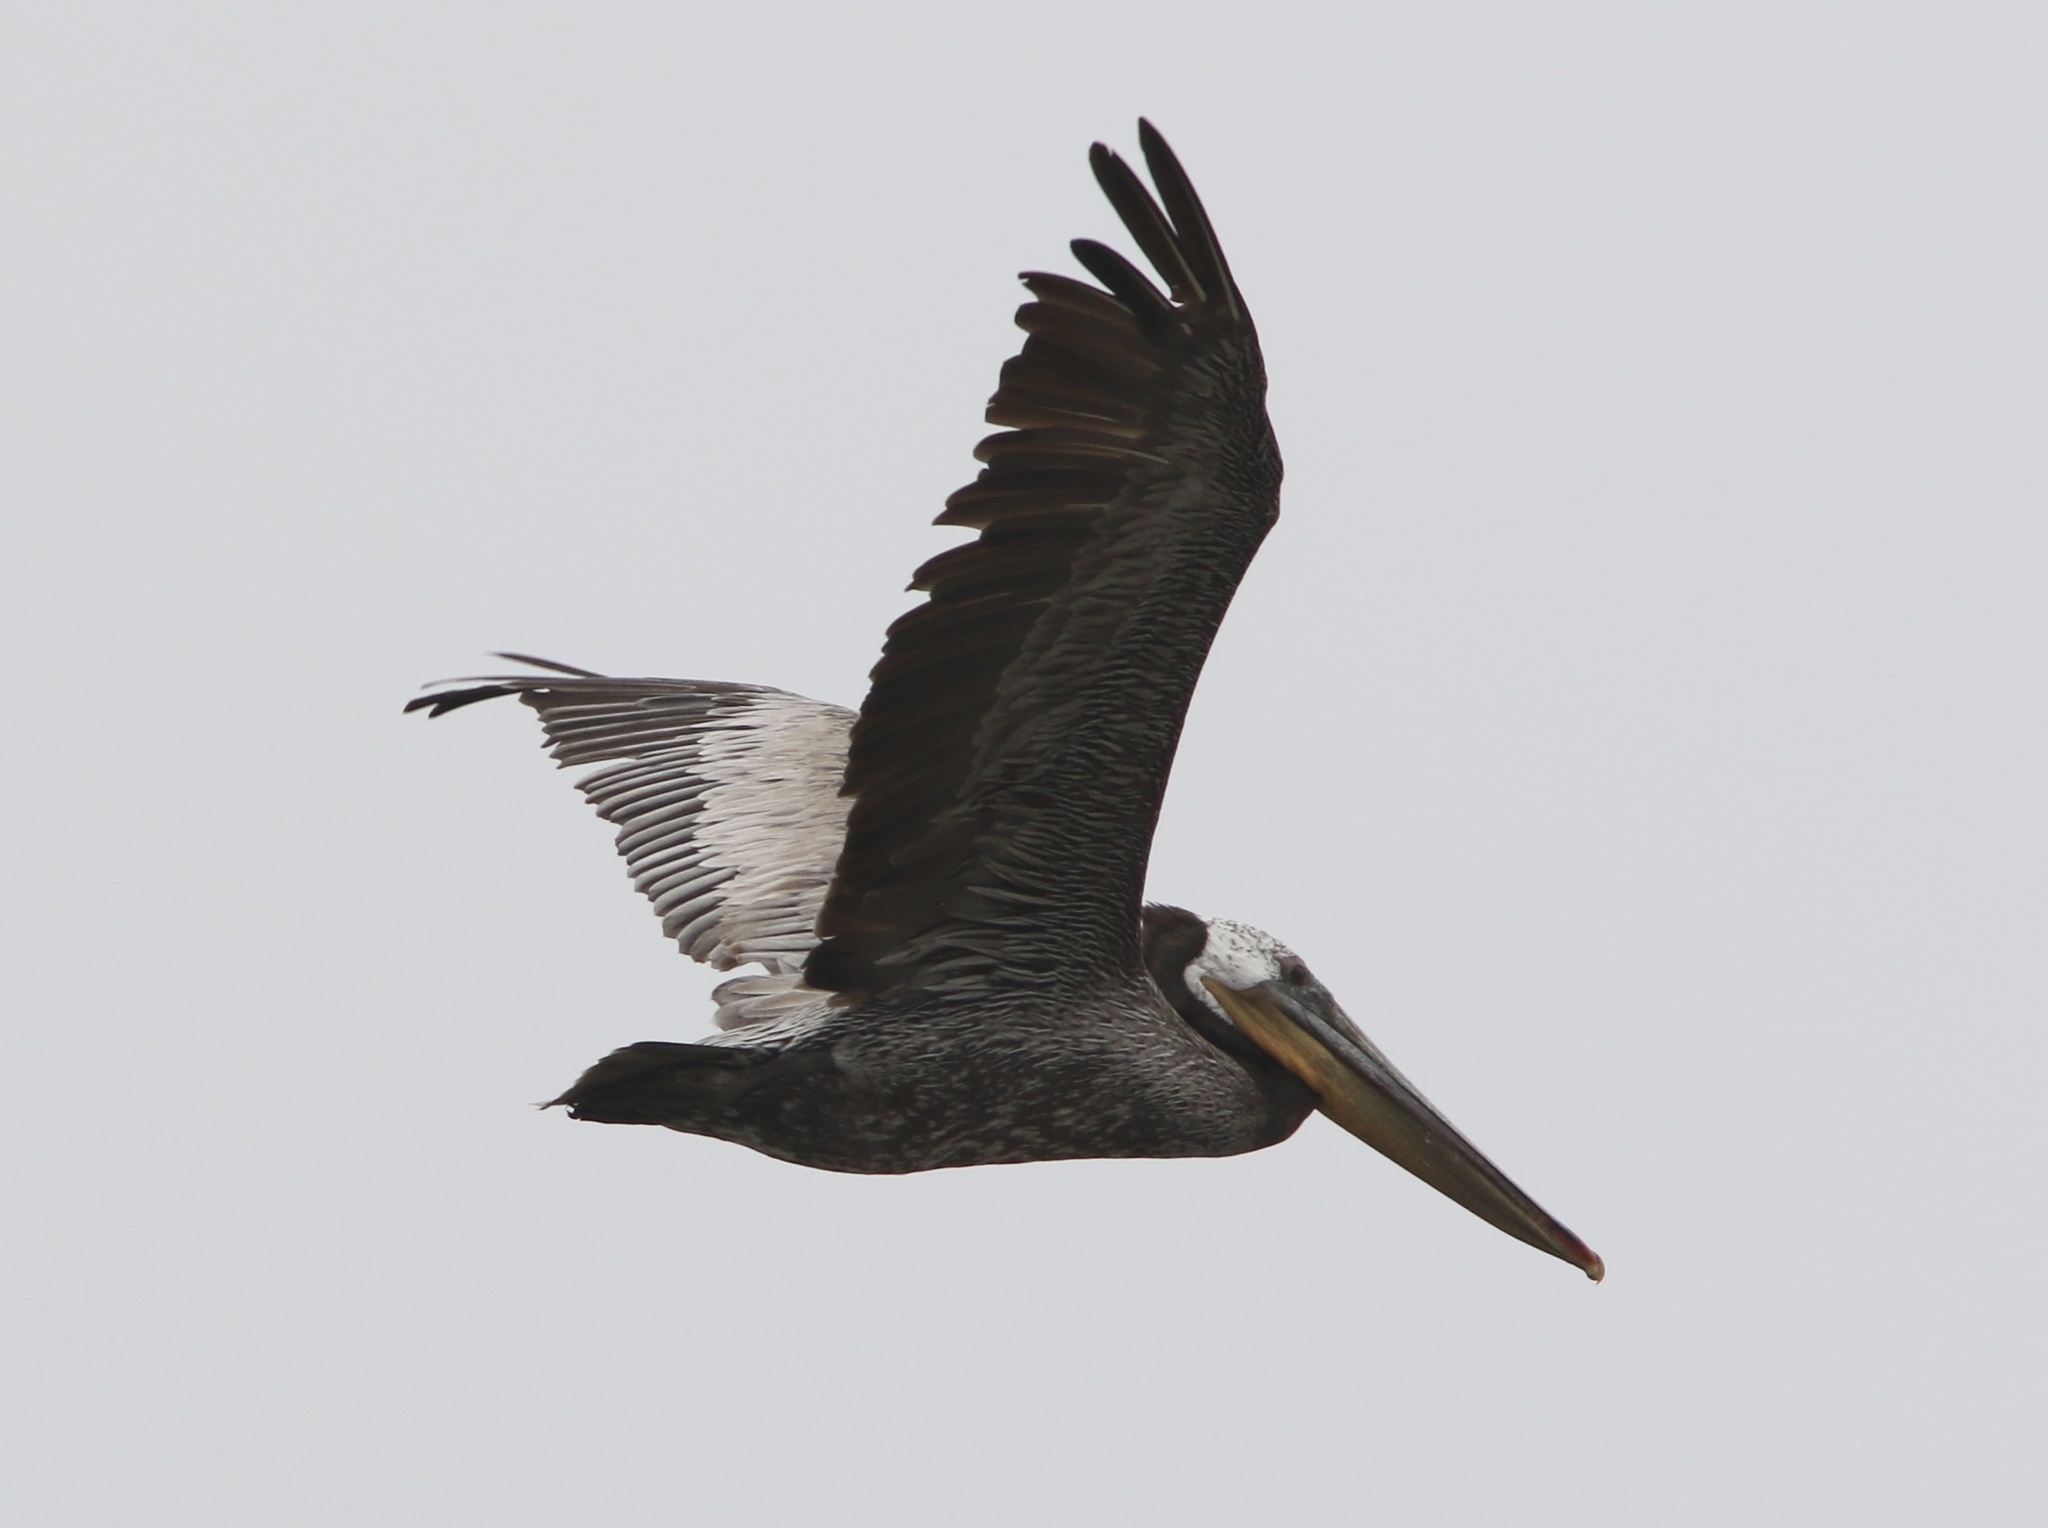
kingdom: Animalia
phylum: Chordata
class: Aves
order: Pelecaniformes
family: Pelecanidae
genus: Pelecanus
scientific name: Pelecanus occidentalis
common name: Brown pelican
